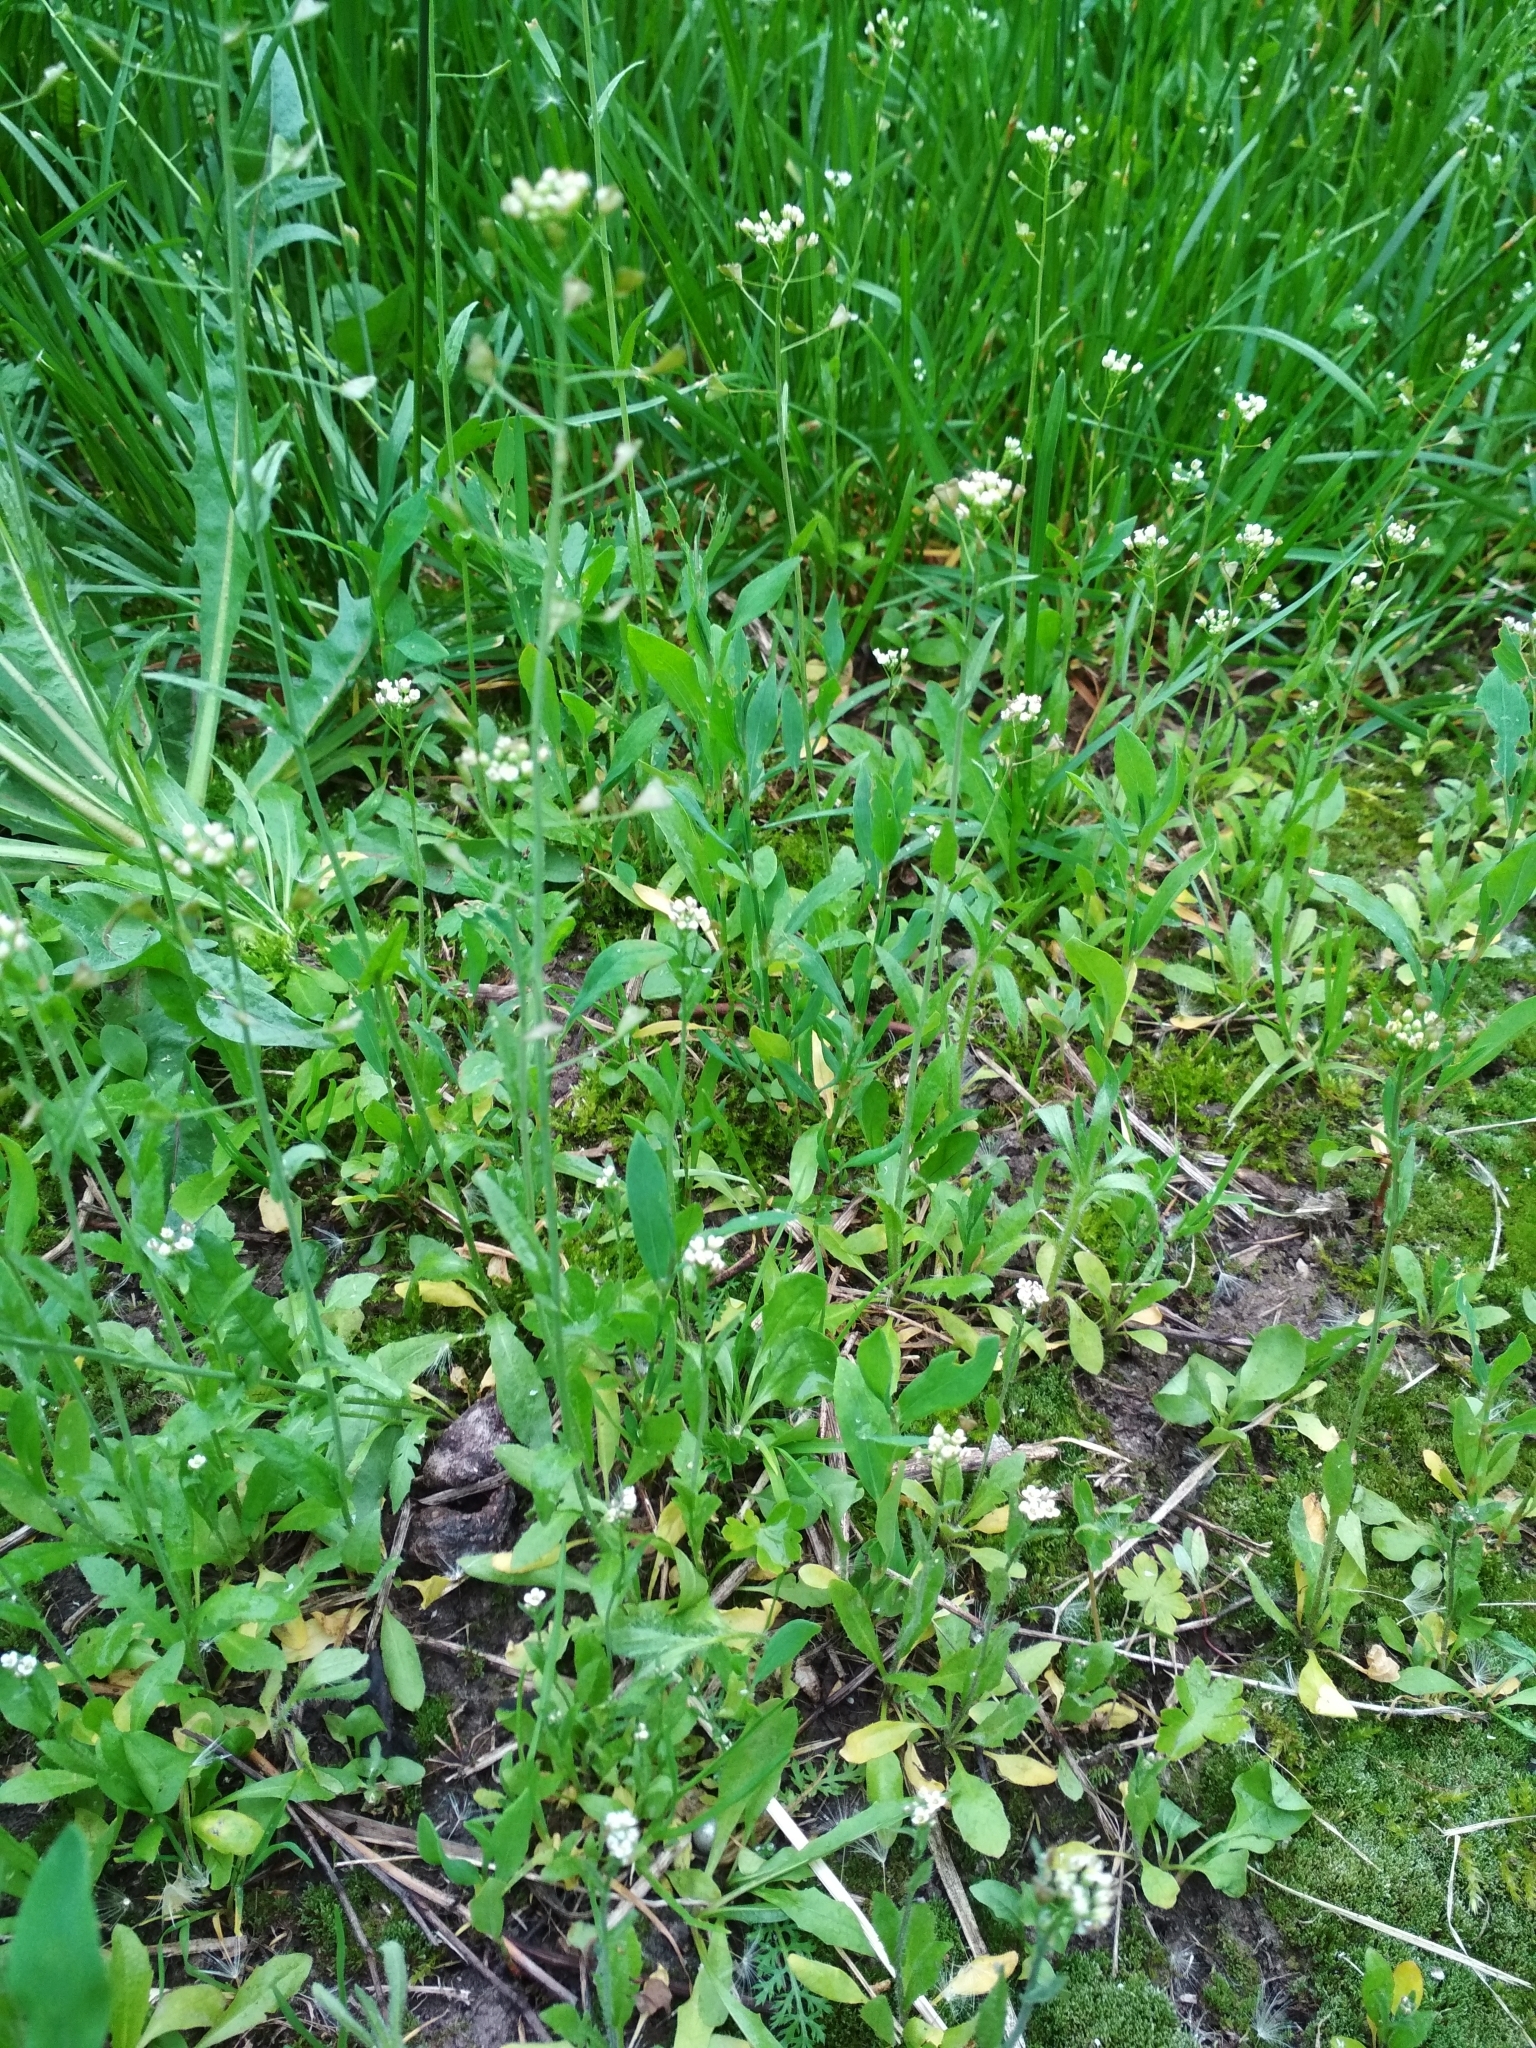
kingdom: Plantae
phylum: Tracheophyta
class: Magnoliopsida
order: Brassicales
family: Brassicaceae
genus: Capsella
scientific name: Capsella bursa-pastoris
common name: Shepherd's purse
